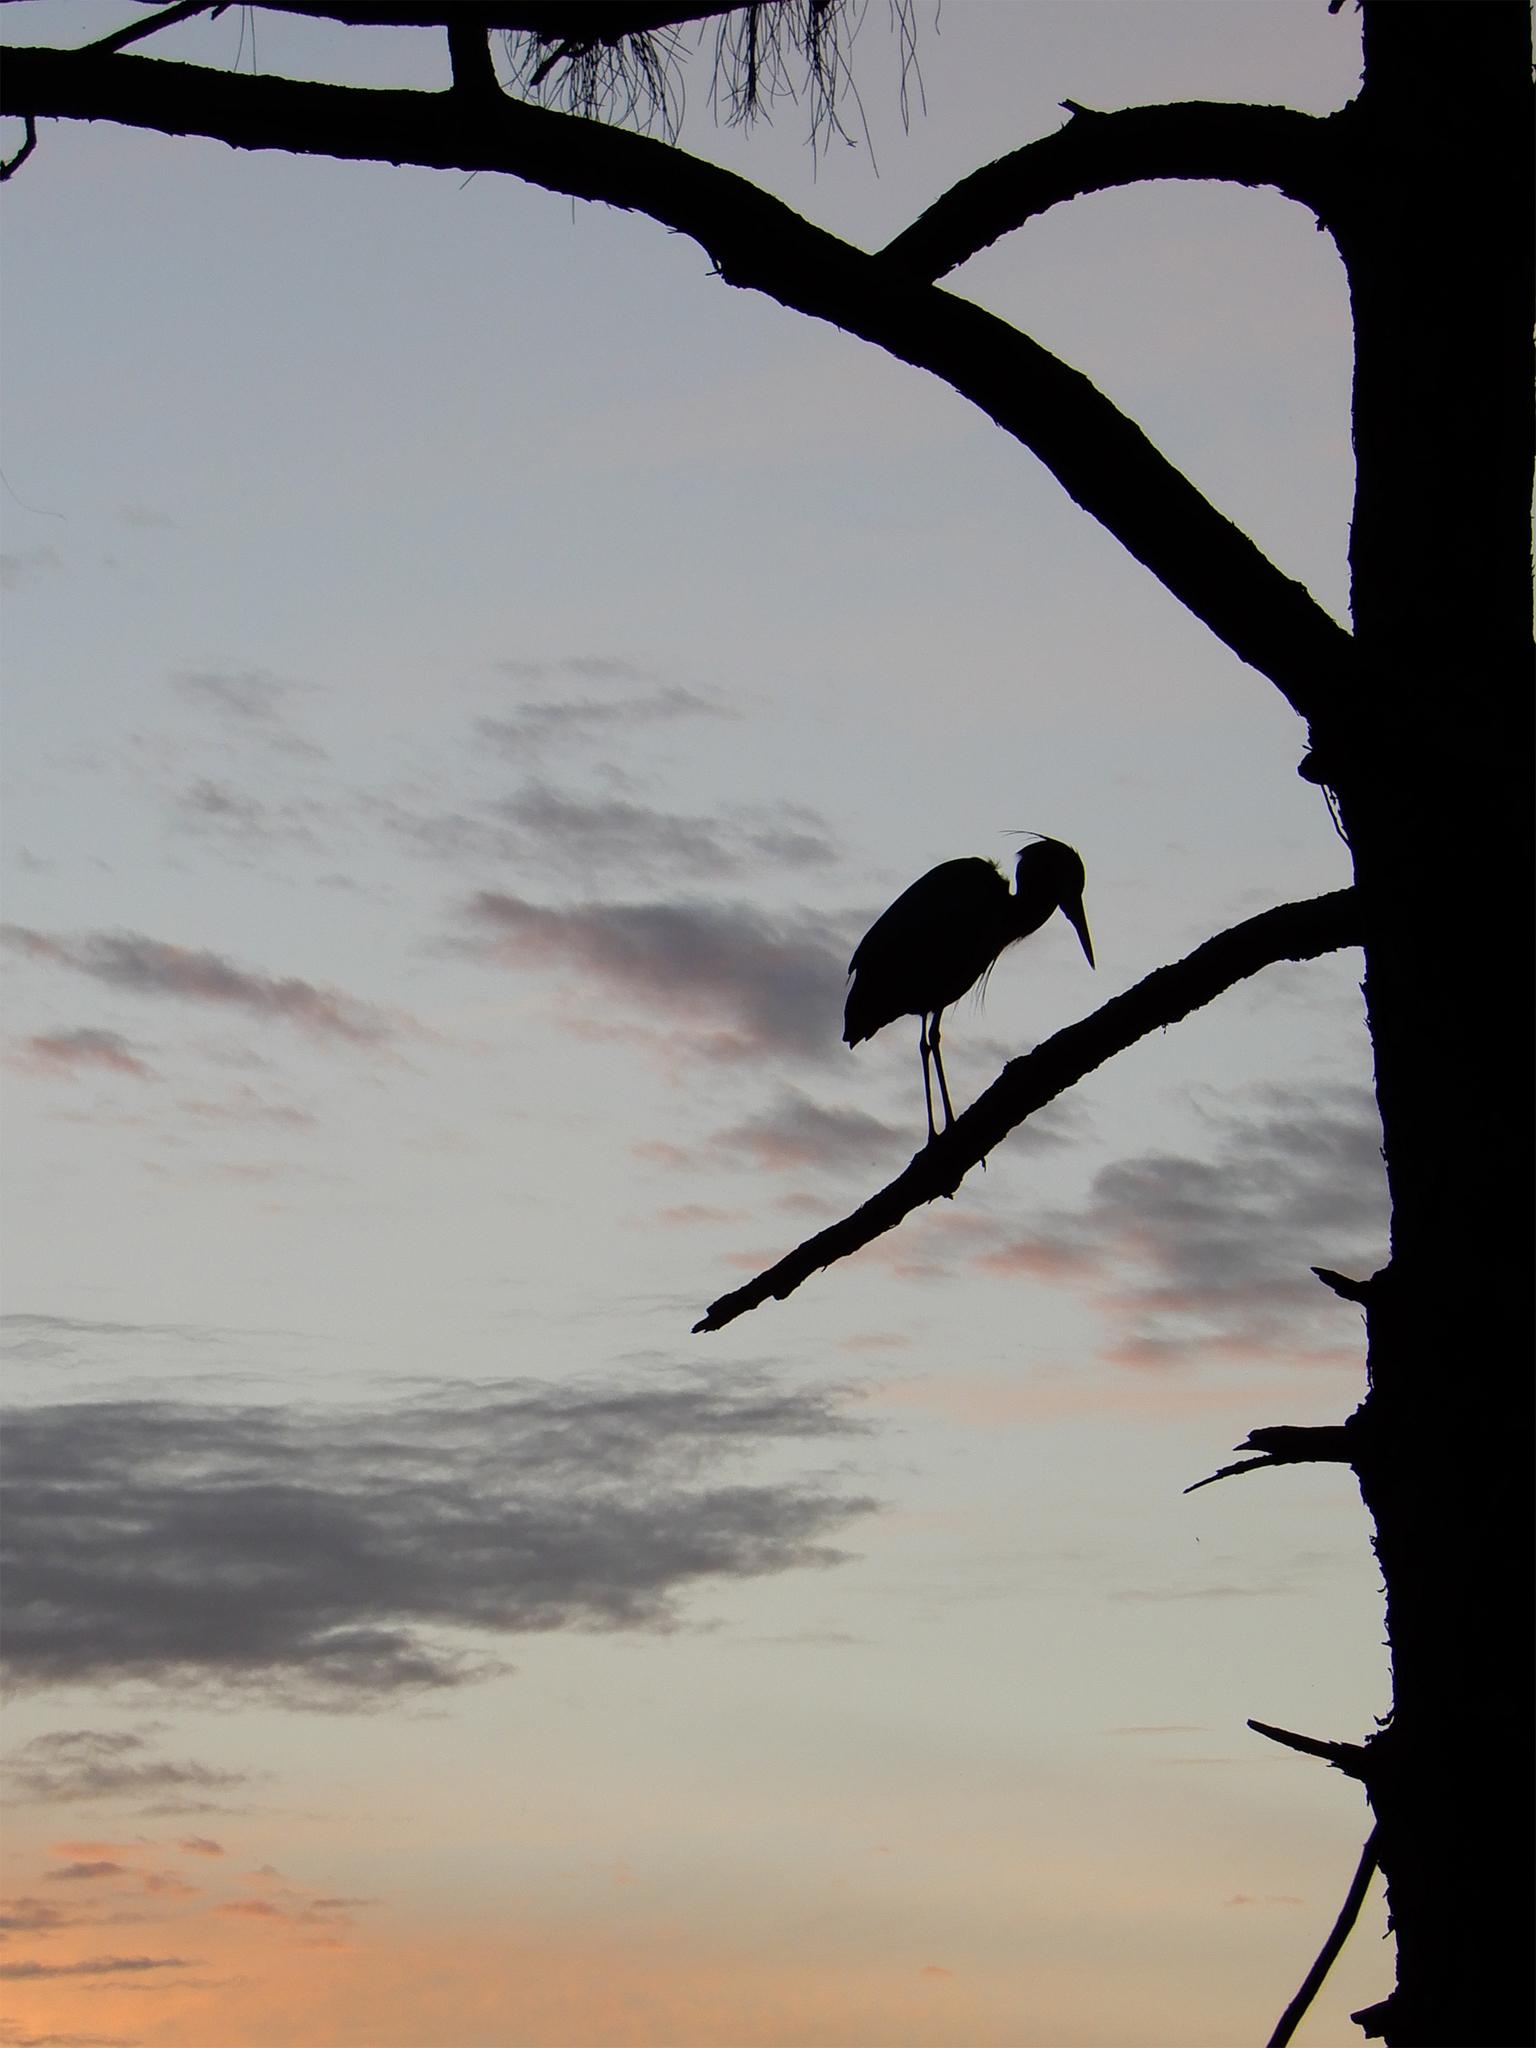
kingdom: Animalia
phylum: Chordata
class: Aves
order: Pelecaniformes
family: Ardeidae
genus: Ardea
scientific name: Ardea herodias
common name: Great blue heron
